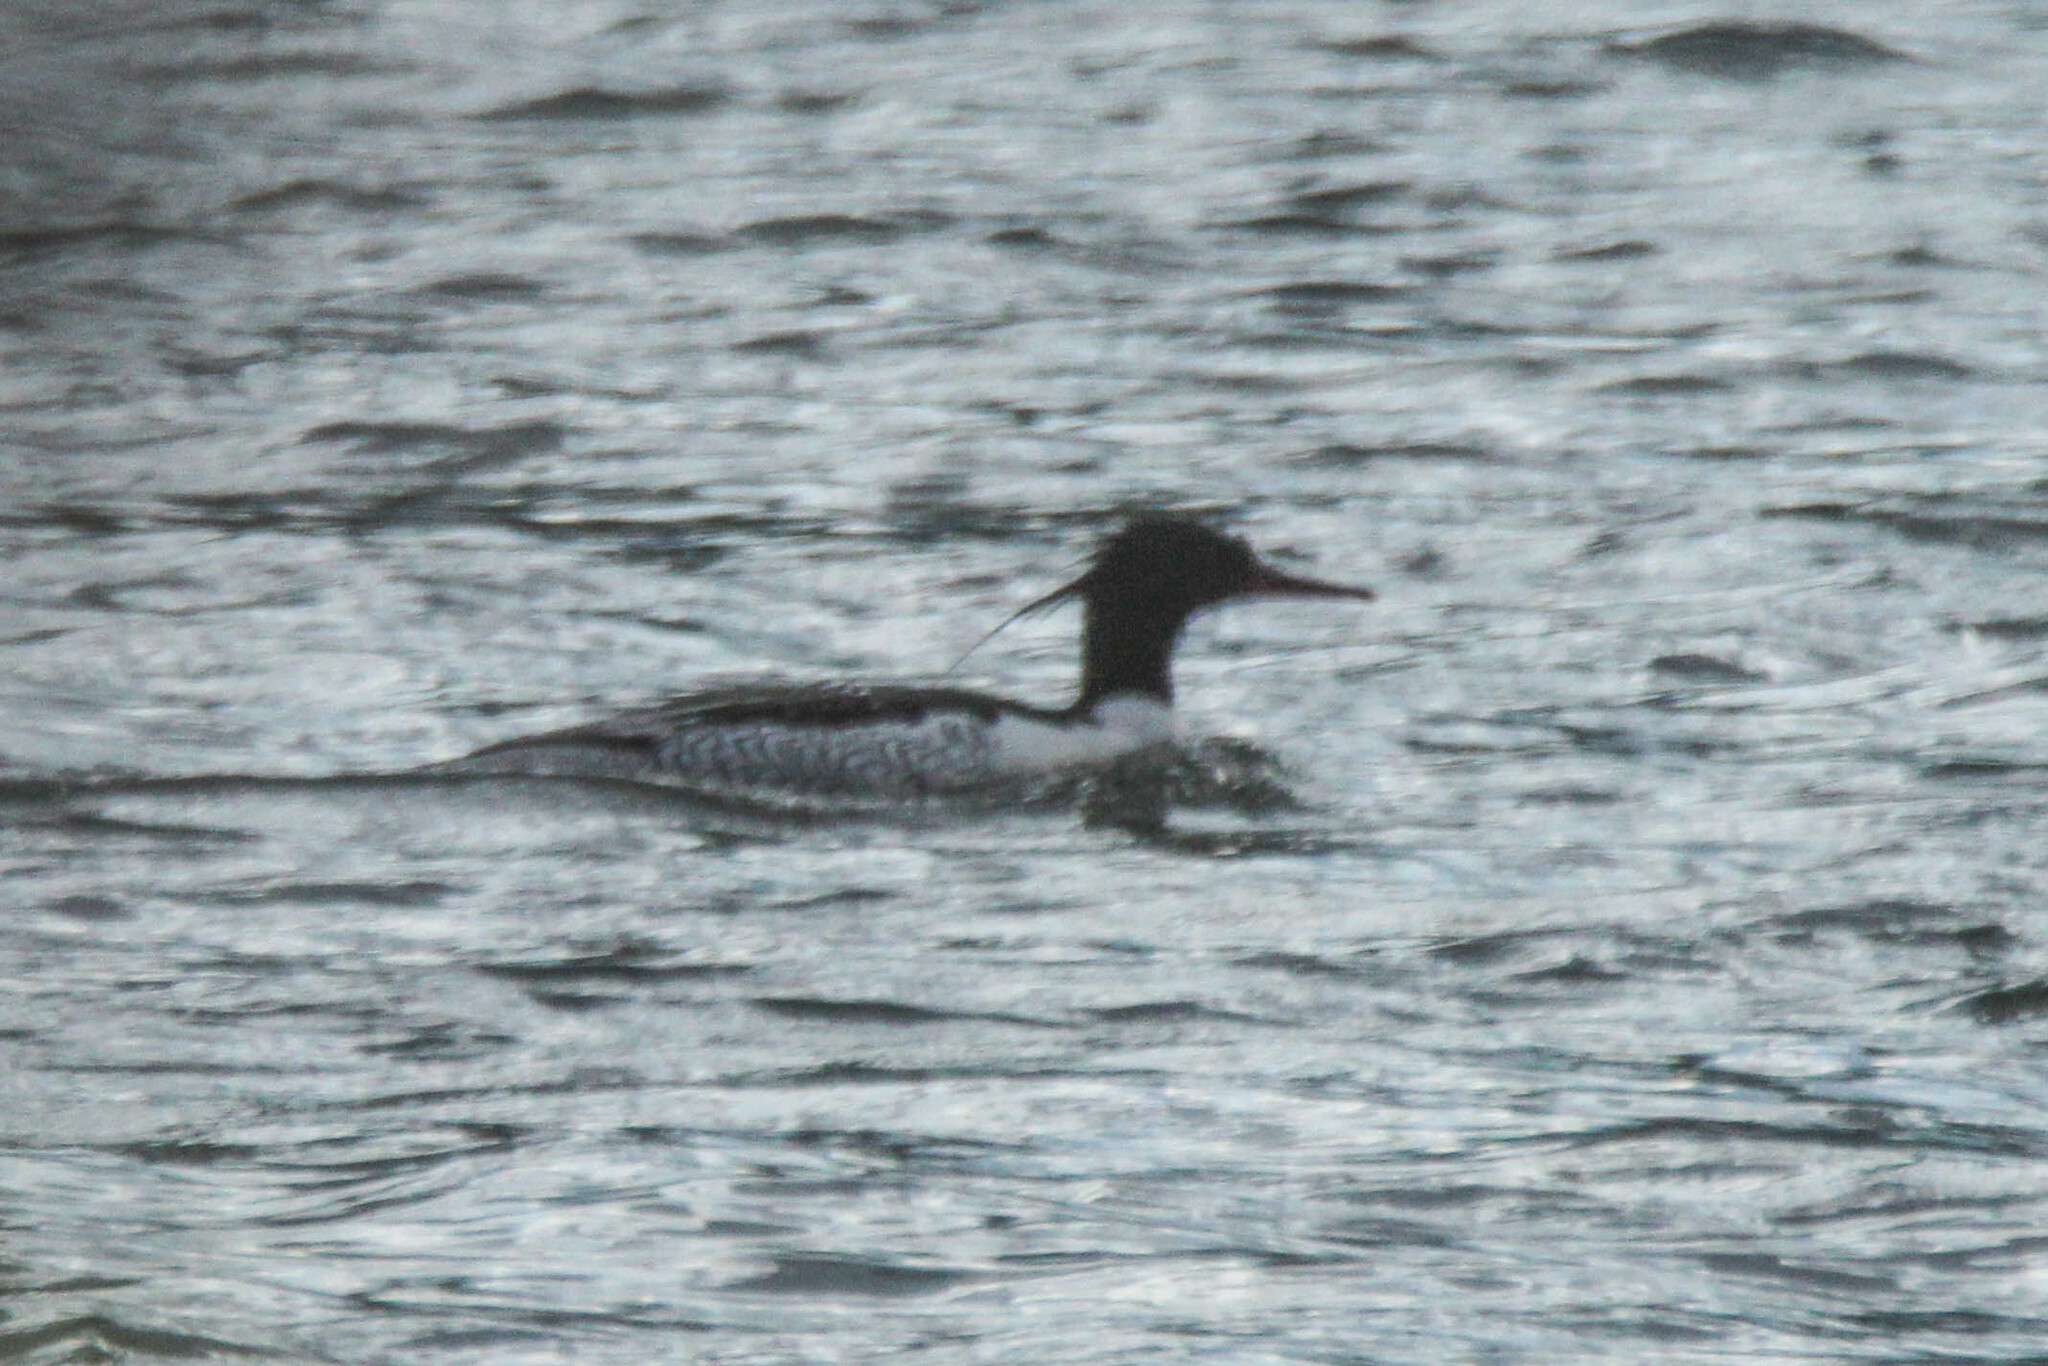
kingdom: Animalia
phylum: Chordata
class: Aves
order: Anseriformes
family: Anatidae
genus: Mergus
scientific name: Mergus squamatus
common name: Scaly-sided merganser
